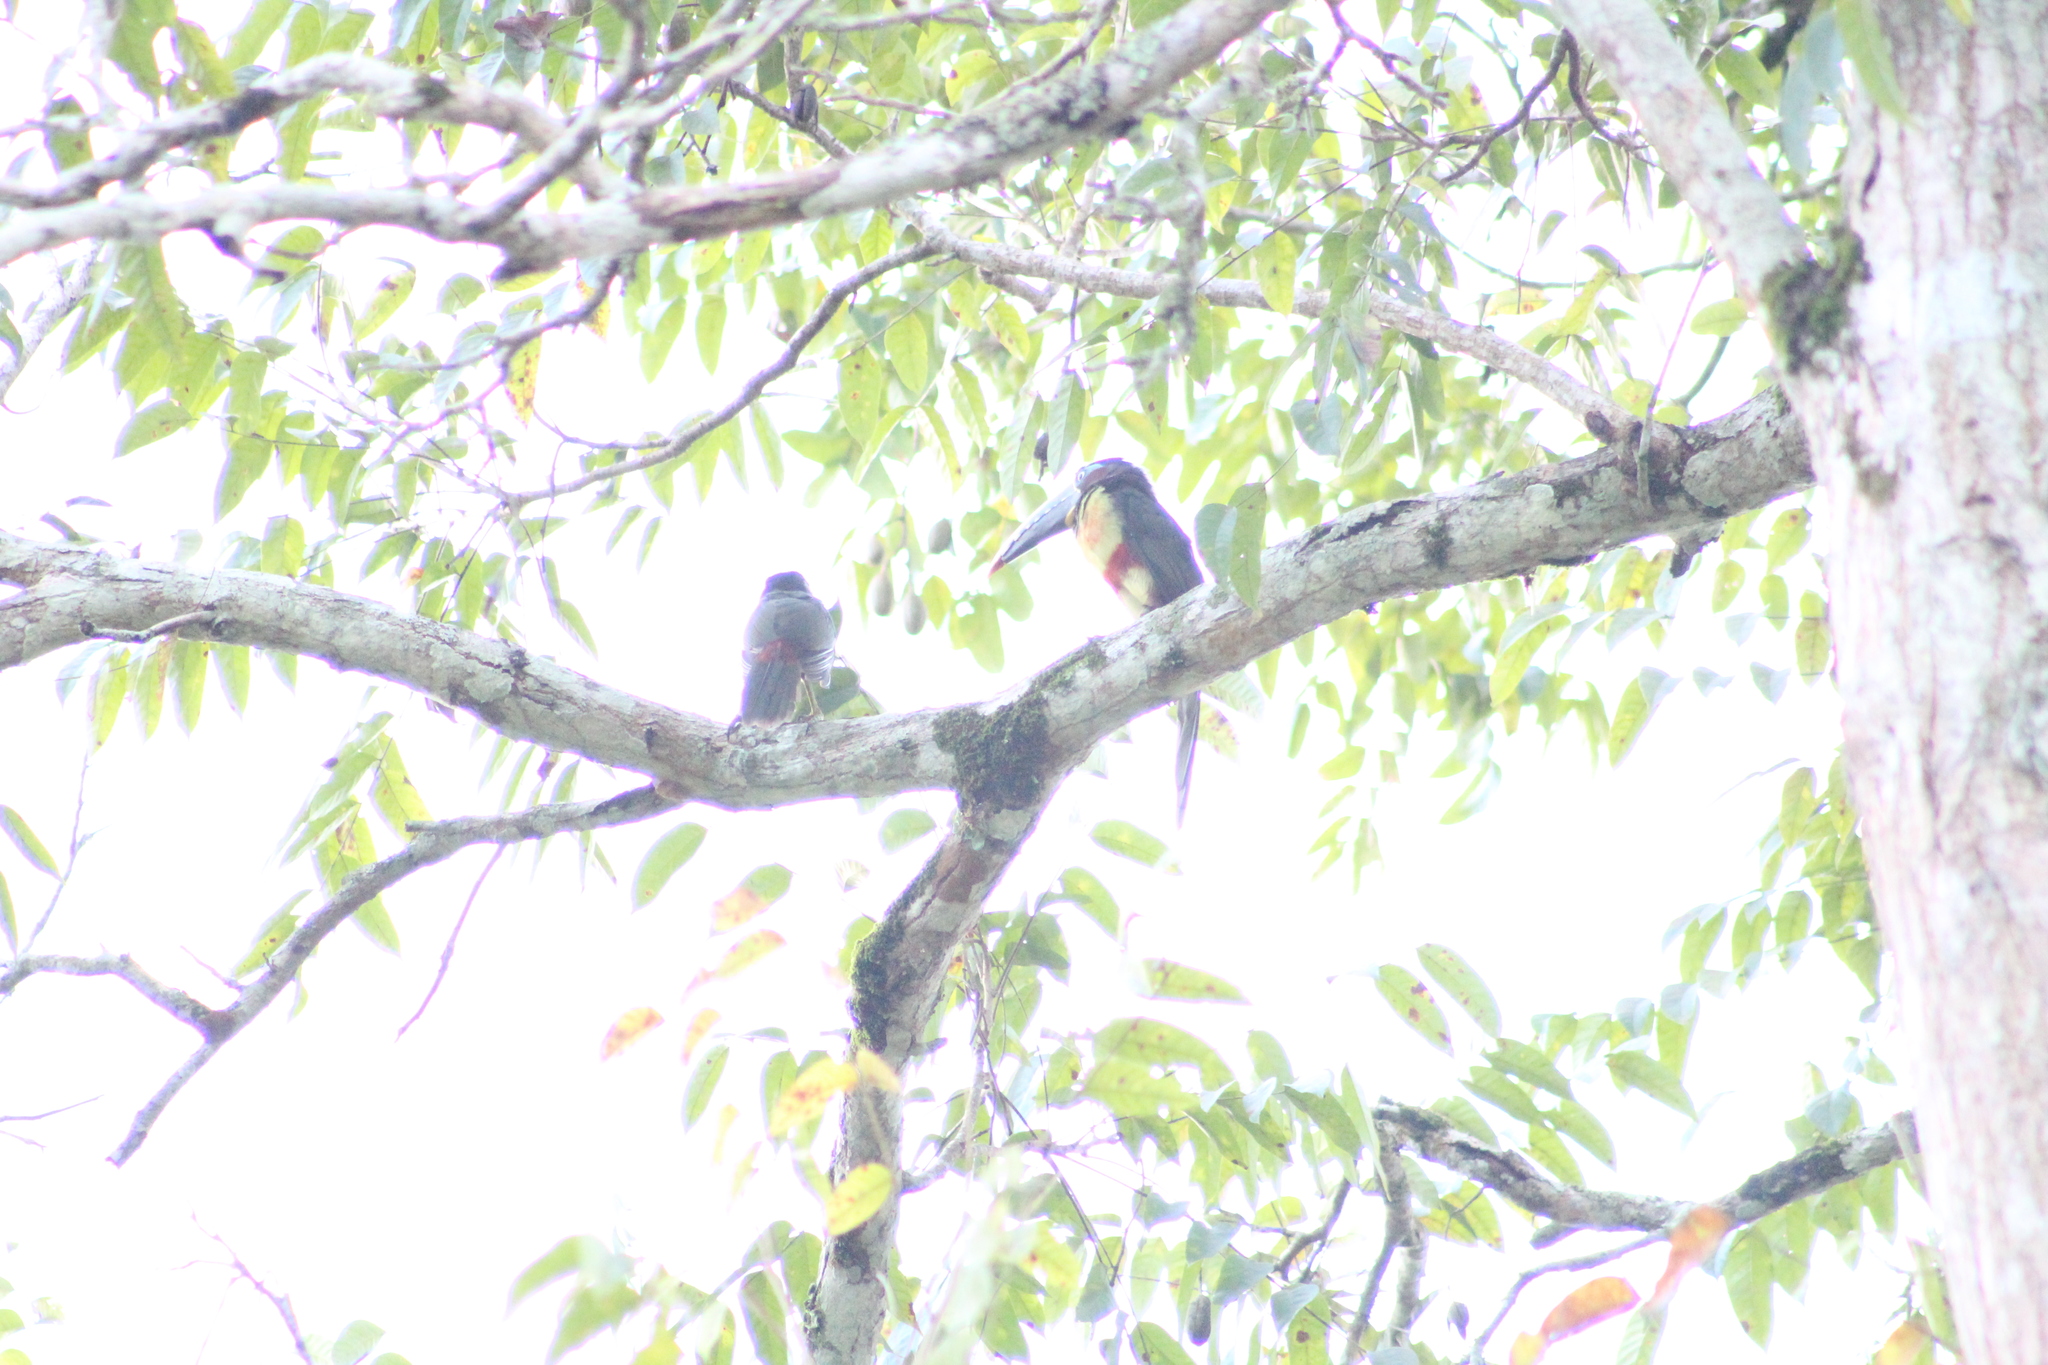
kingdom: Animalia
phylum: Chordata
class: Aves
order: Piciformes
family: Ramphastidae
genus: Pteroglossus
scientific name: Pteroglossus castanotis
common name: Chestnut-eared aracari
